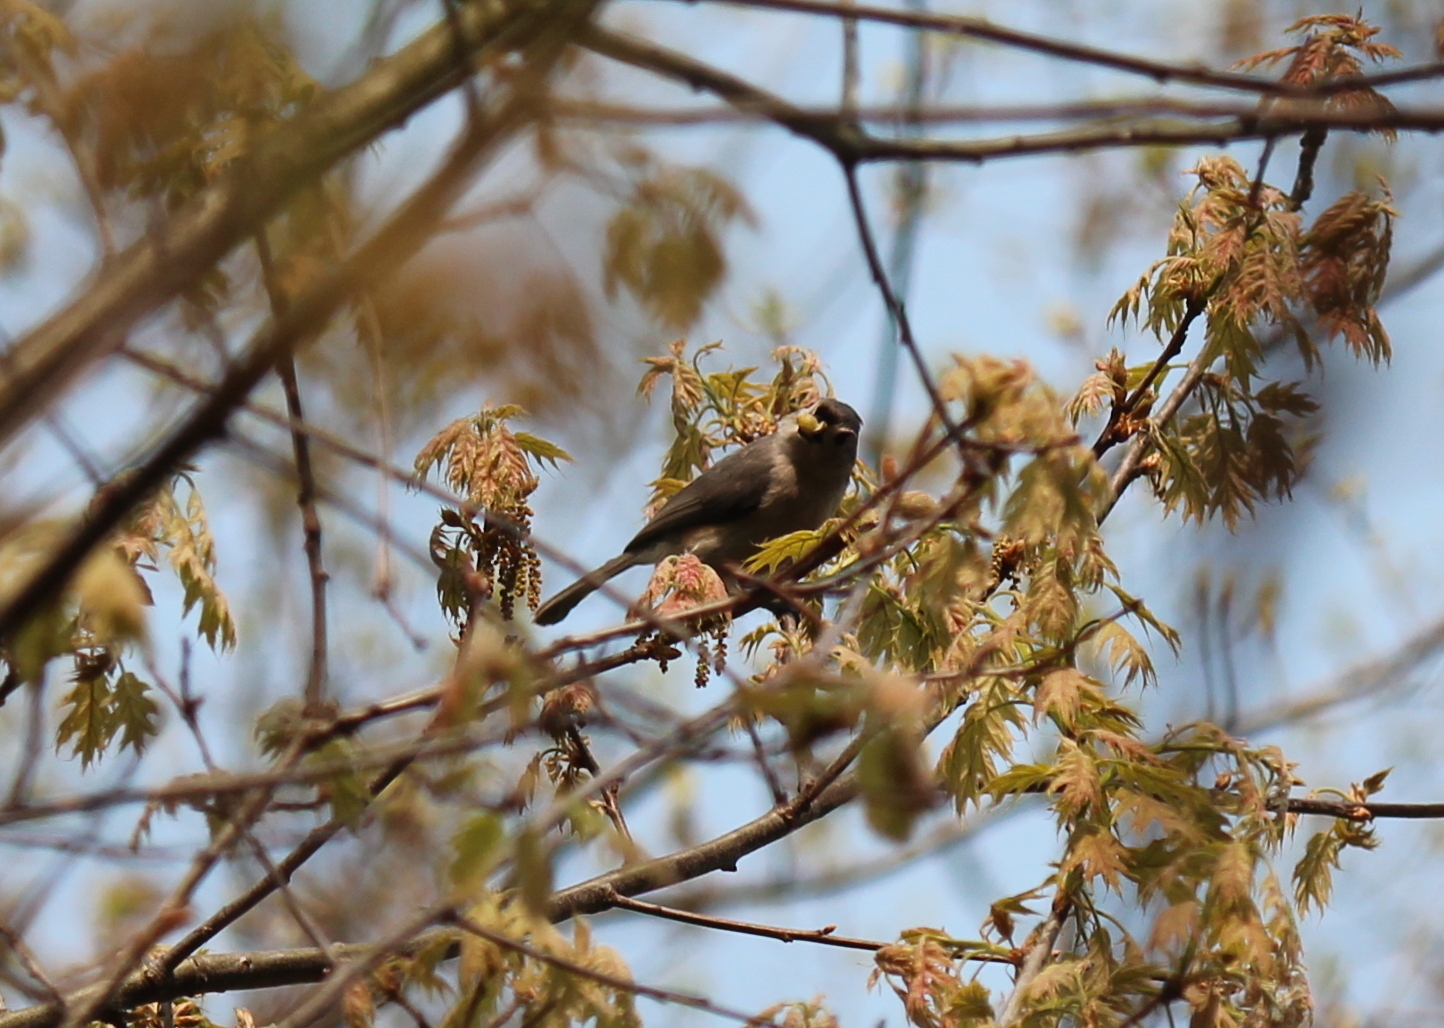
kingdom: Animalia
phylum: Chordata
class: Aves
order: Passeriformes
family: Paridae
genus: Baeolophus
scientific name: Baeolophus bicolor
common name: Tufted titmouse
